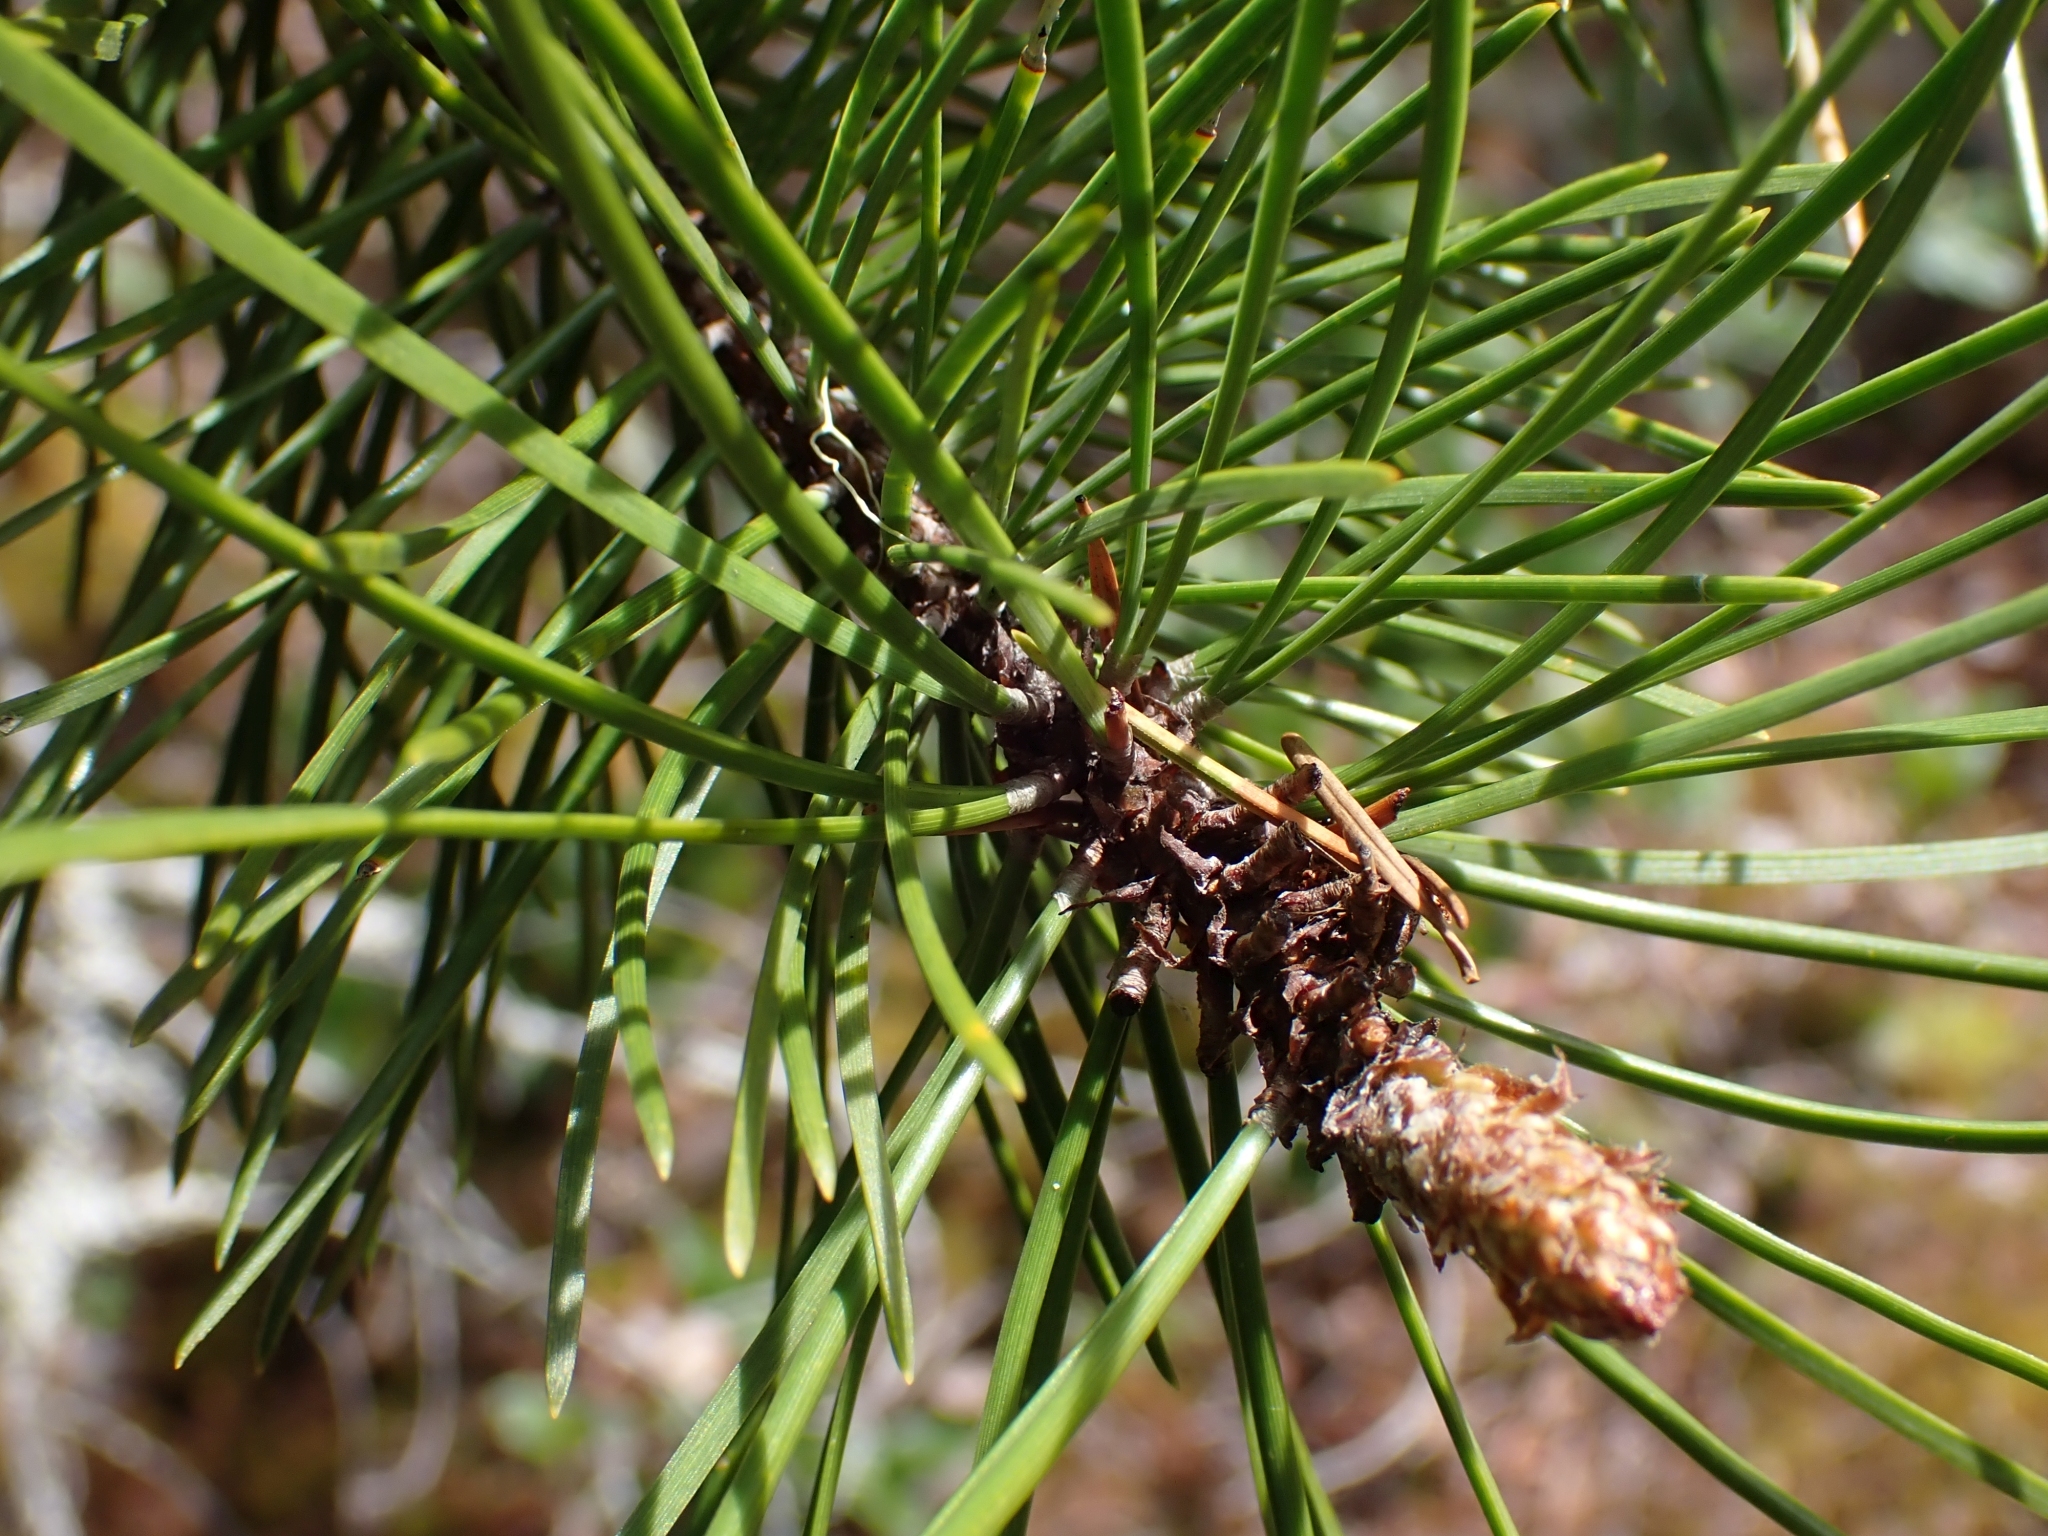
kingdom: Plantae
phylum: Tracheophyta
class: Pinopsida
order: Pinales
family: Pinaceae
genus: Pinus
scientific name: Pinus contorta
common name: Lodgepole pine
